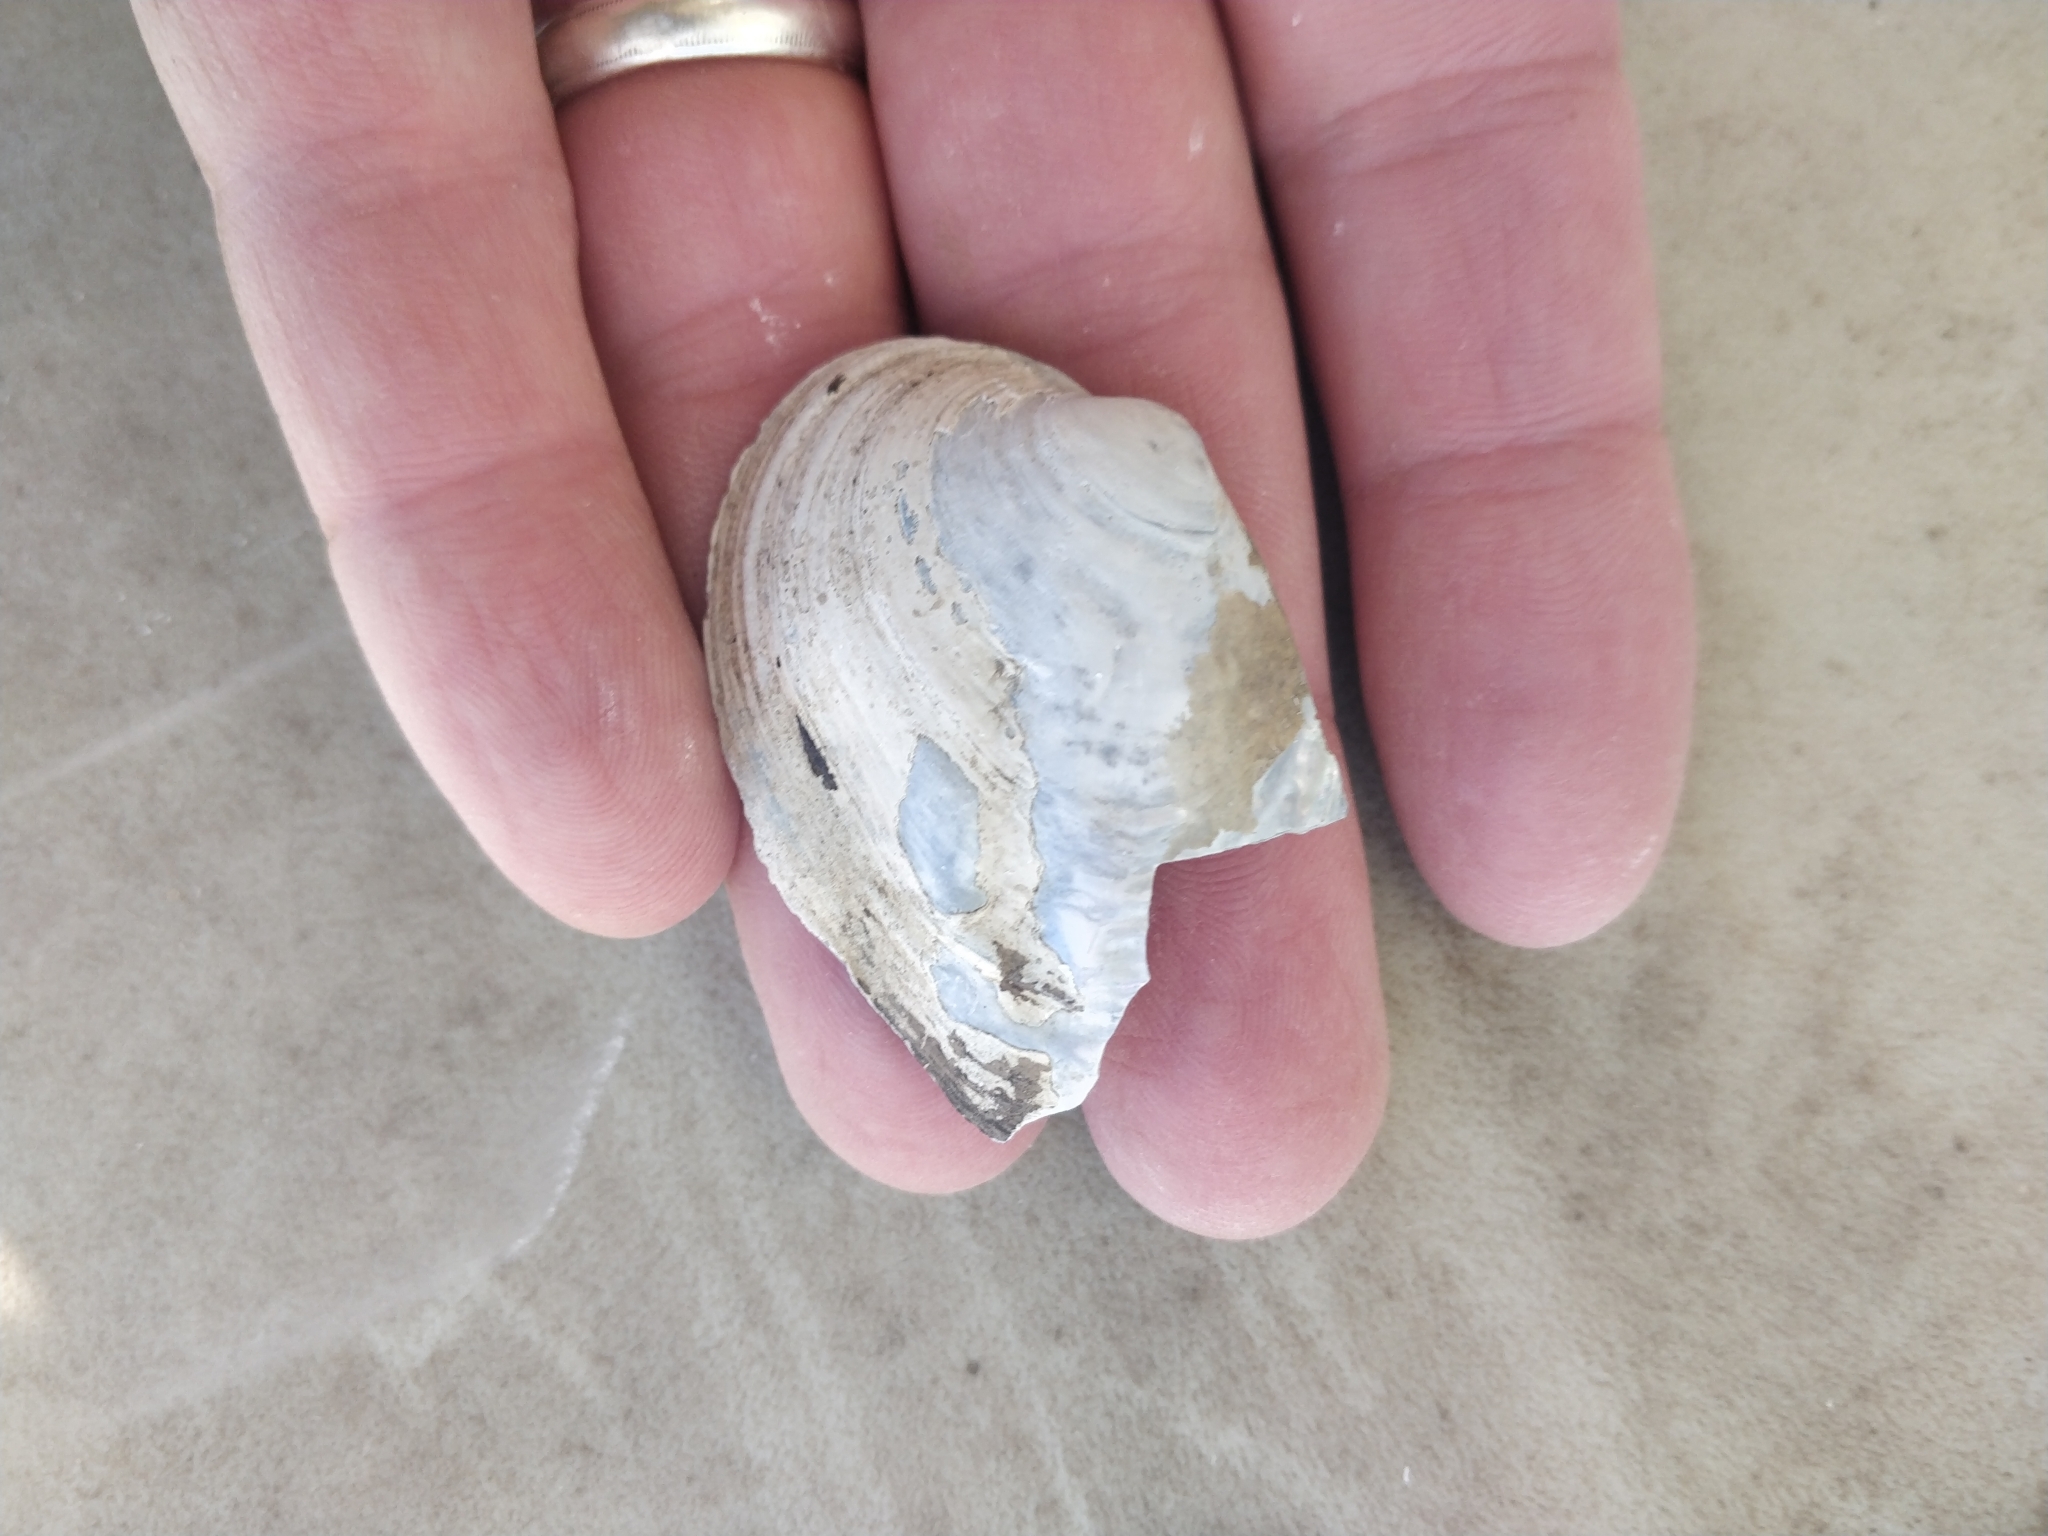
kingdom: Animalia
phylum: Mollusca
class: Bivalvia
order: Unionida
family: Unionidae
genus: Amblema
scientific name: Amblema plicata
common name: Threeridge
